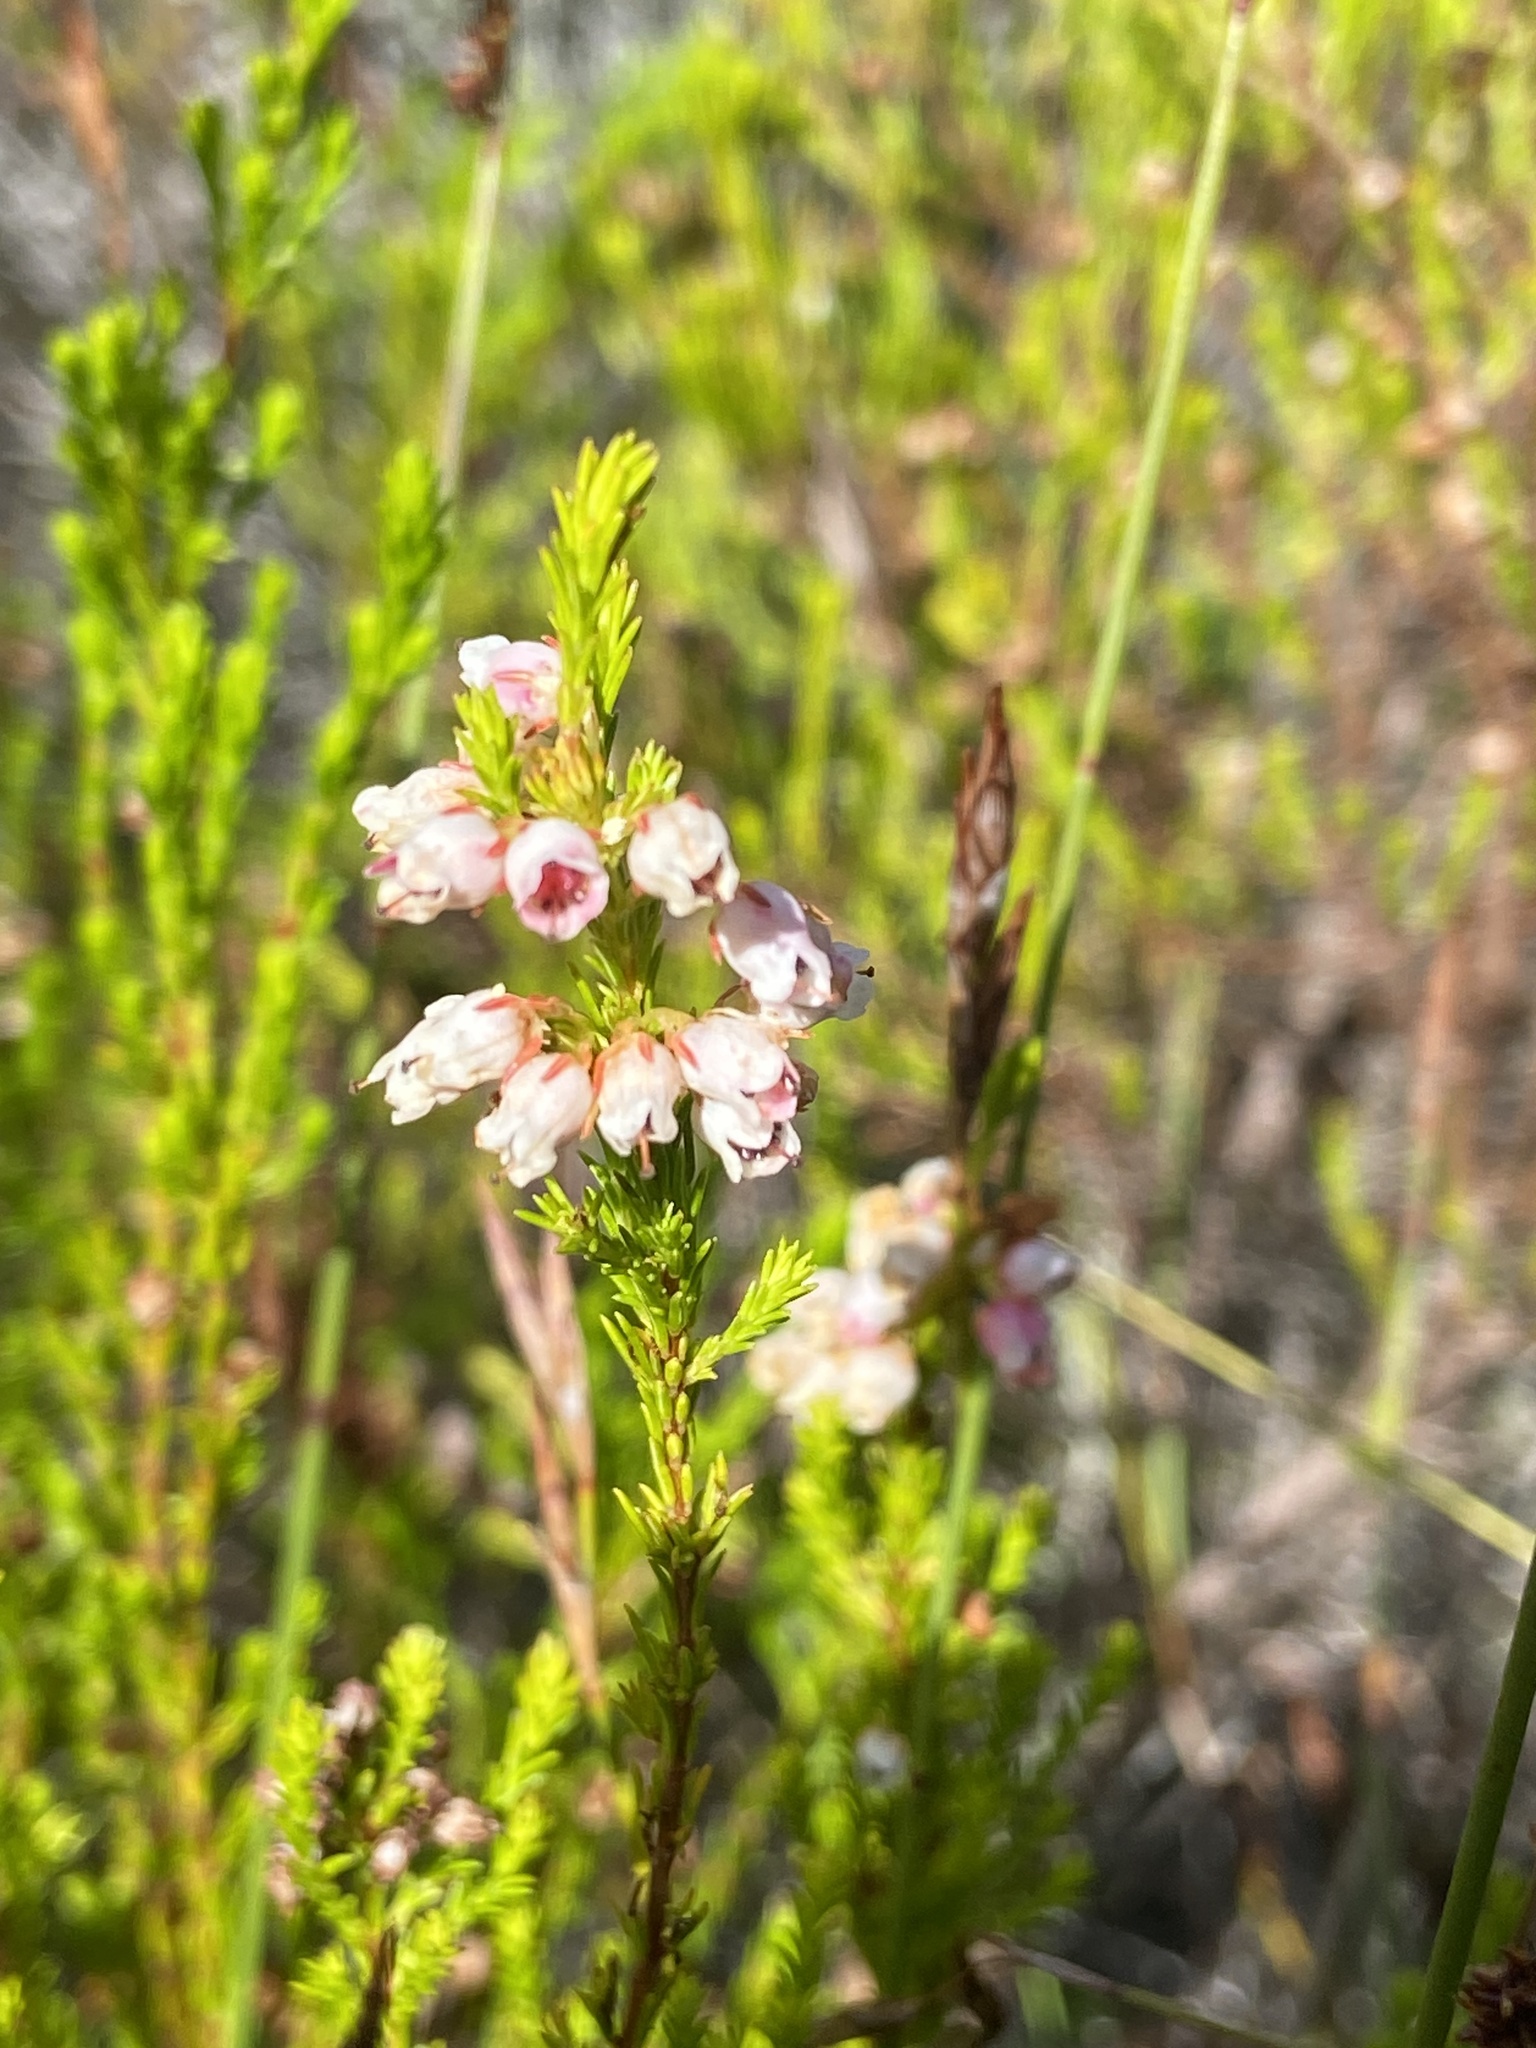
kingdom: Plantae
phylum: Tracheophyta
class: Magnoliopsida
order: Ericales
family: Ericaceae
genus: Erica
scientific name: Erica margaritacea
